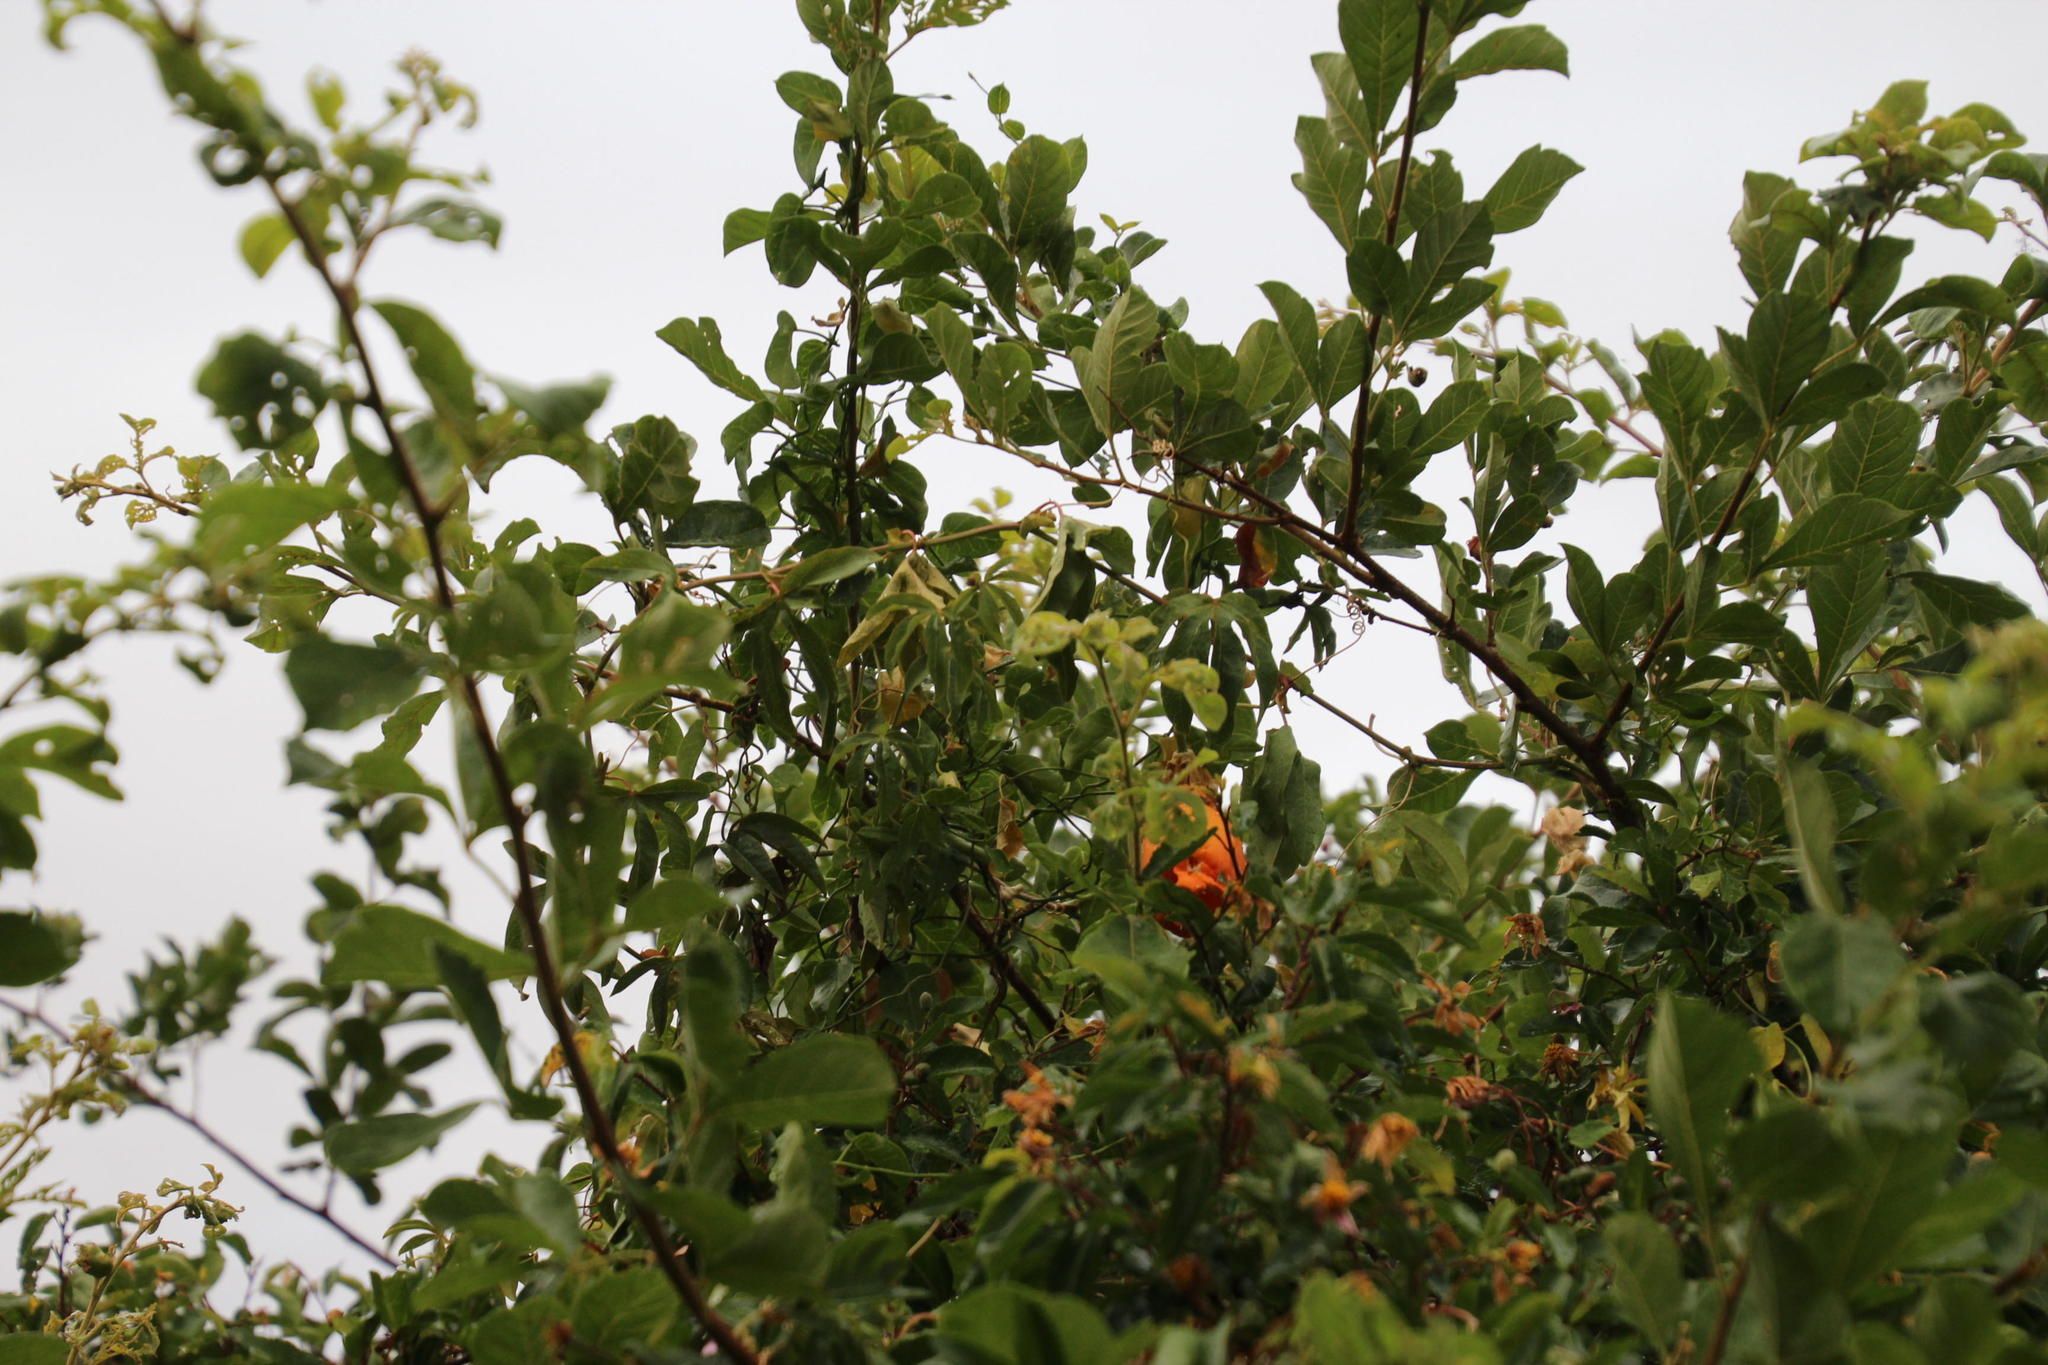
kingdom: Plantae
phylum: Tracheophyta
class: Magnoliopsida
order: Malpighiales
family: Passifloraceae
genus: Passiflora
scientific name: Passiflora caerulea
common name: Blue passionflower
